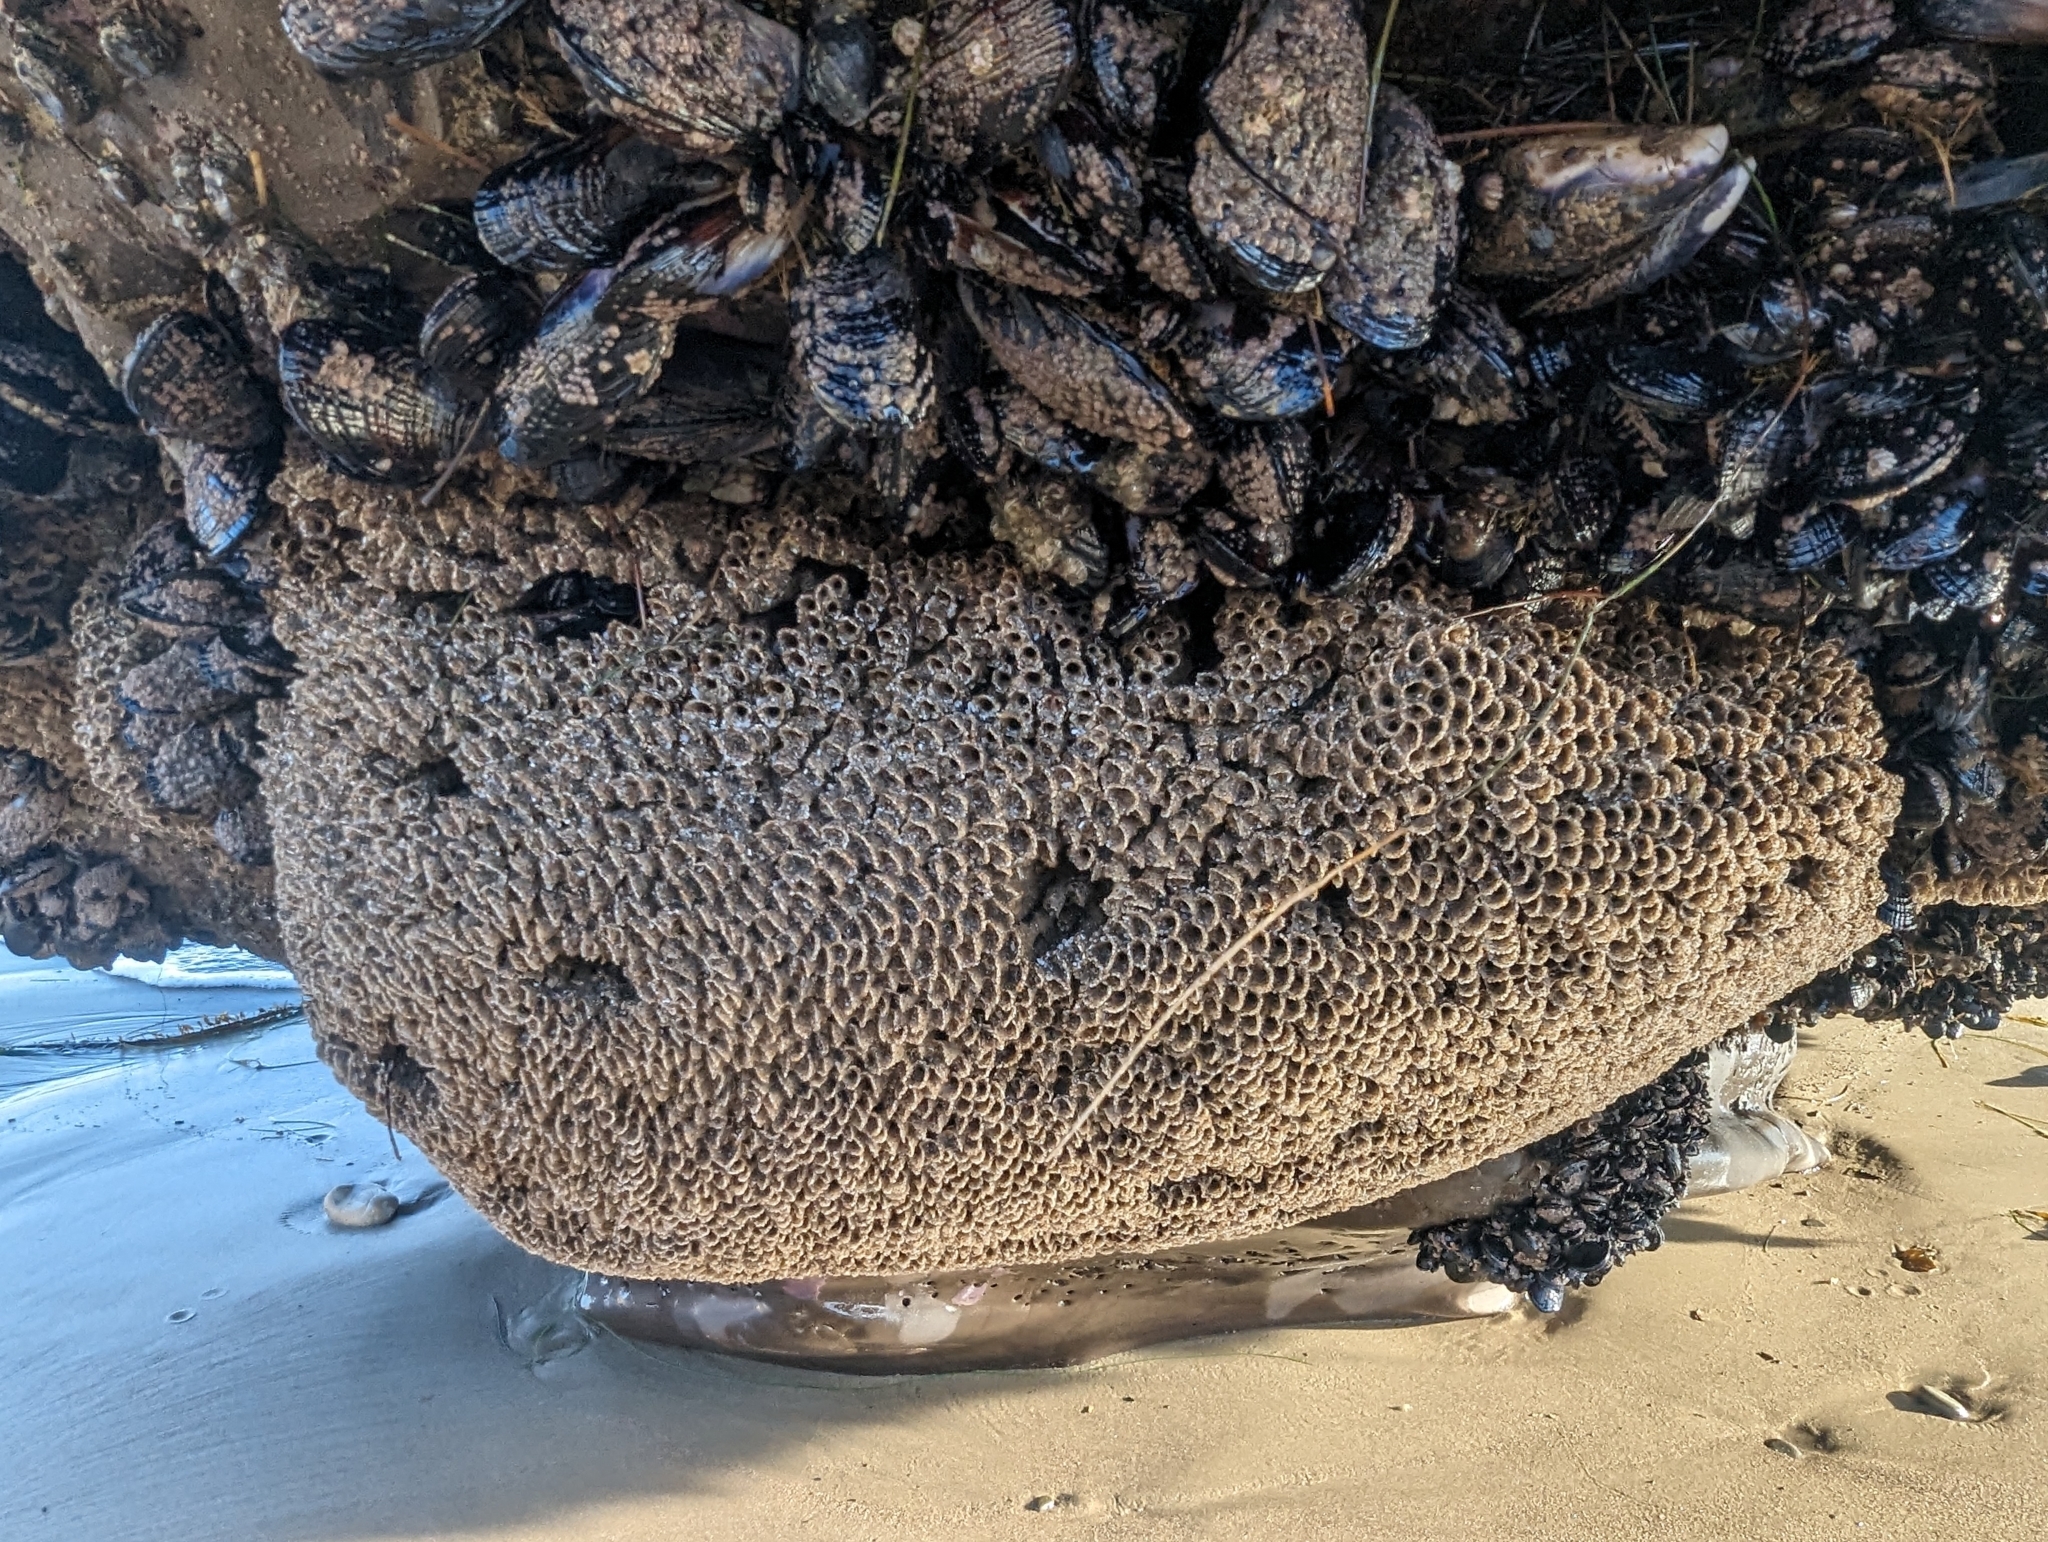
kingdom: Animalia
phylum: Annelida
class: Polychaeta
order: Sabellida
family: Sabellariidae
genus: Phragmatopoma
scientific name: Phragmatopoma californica
